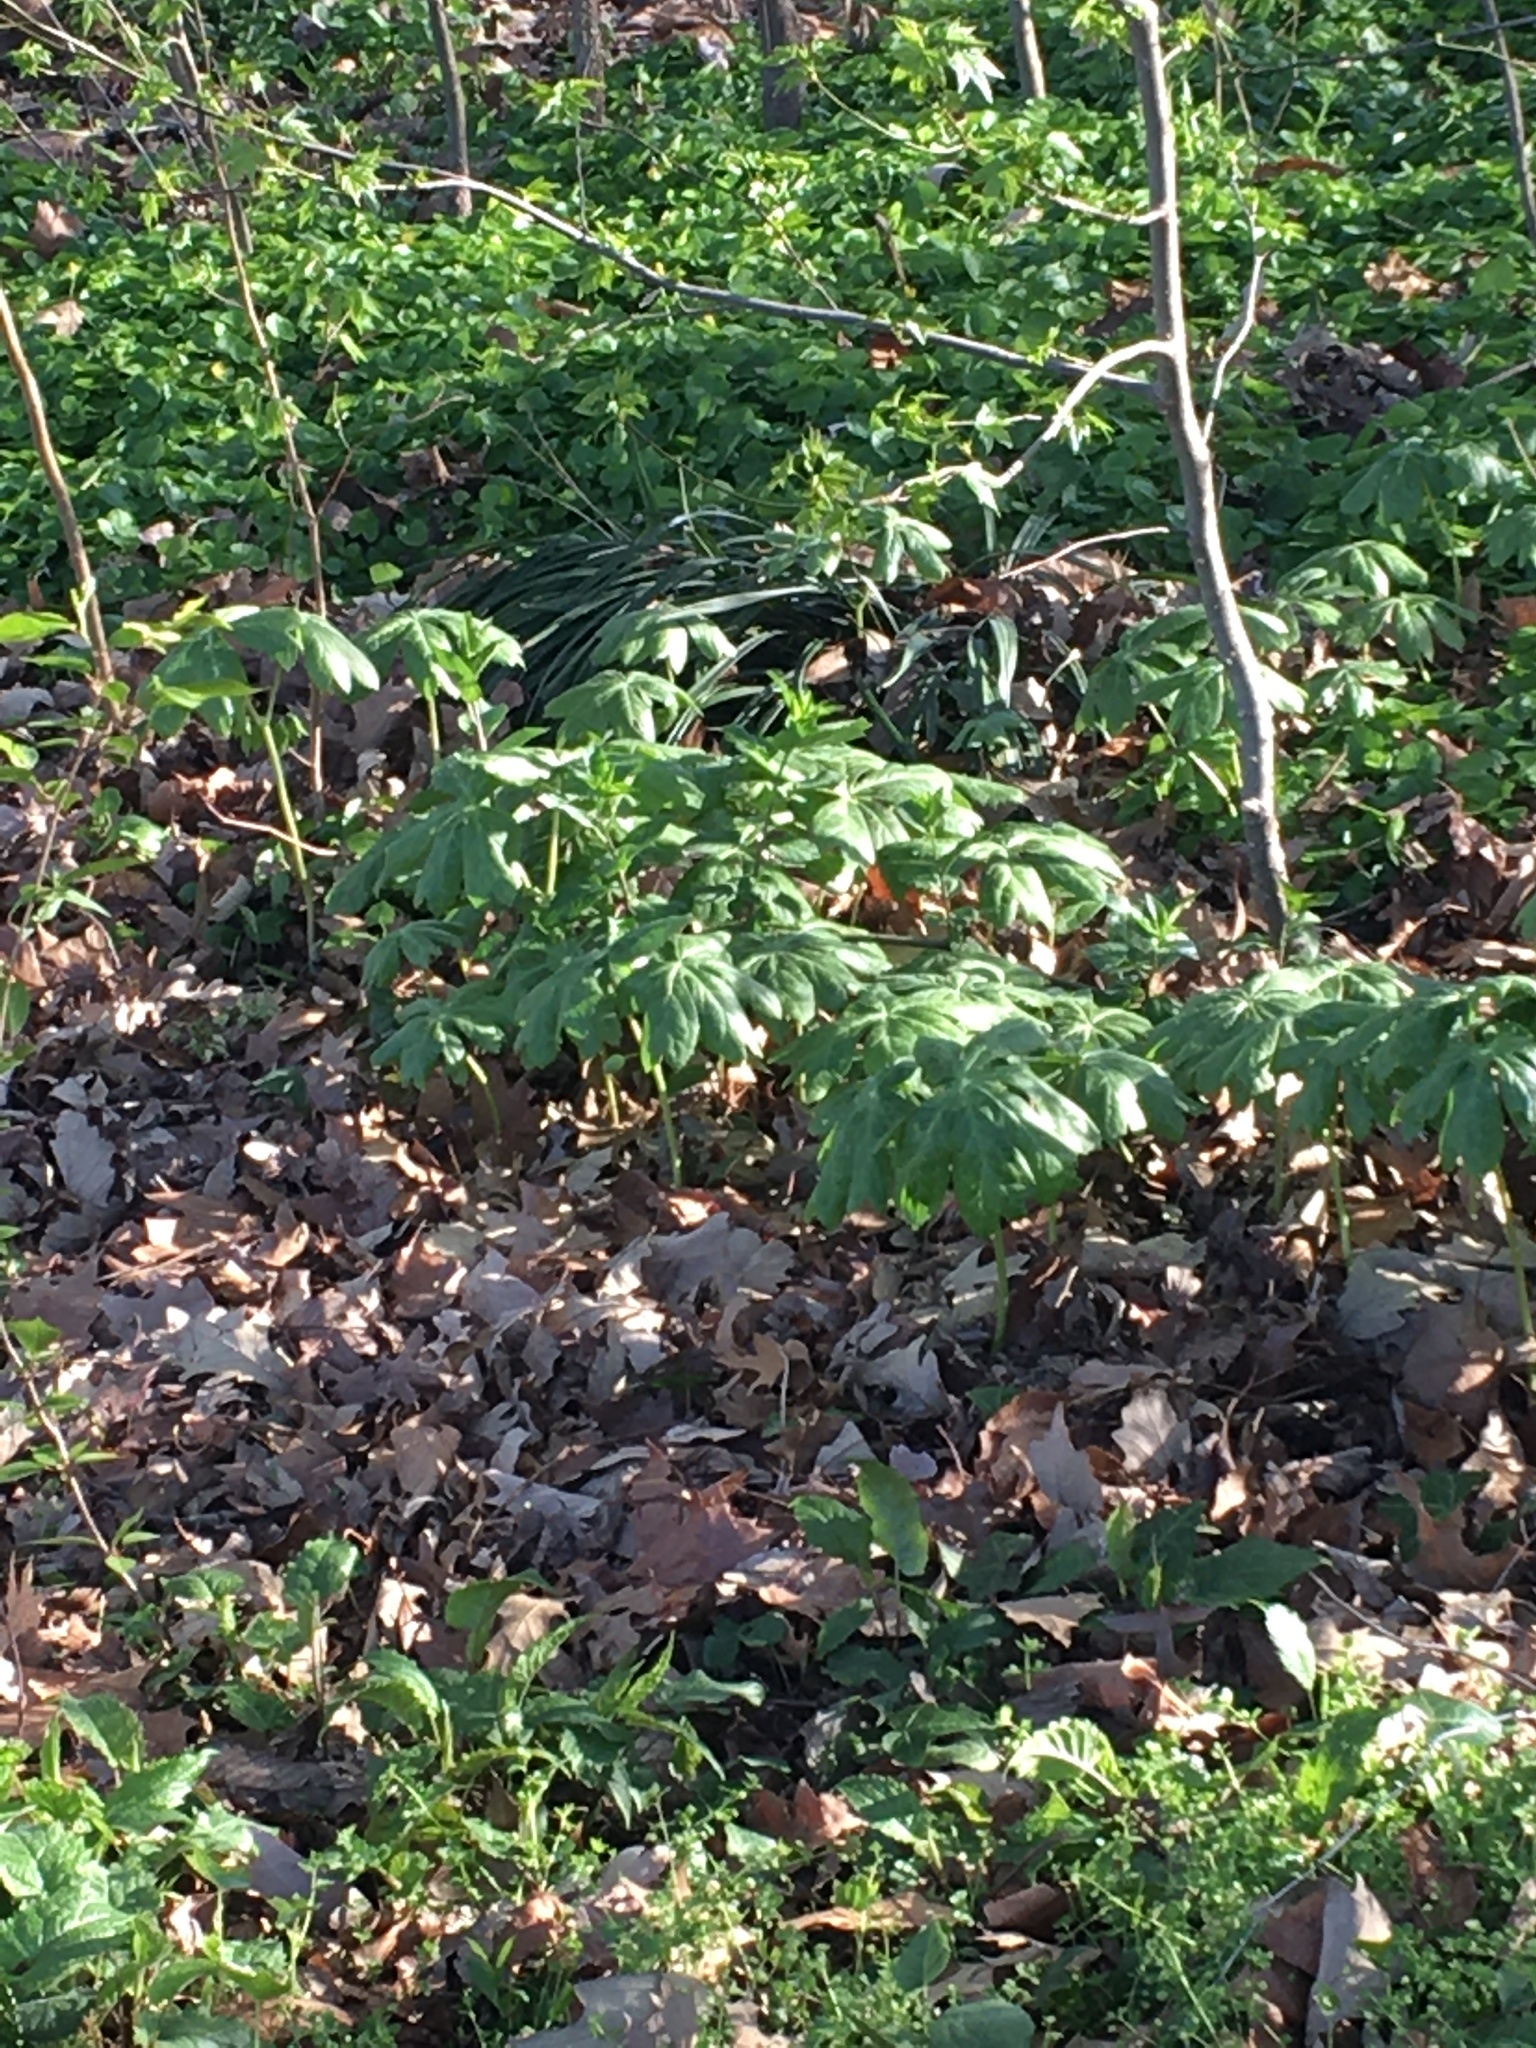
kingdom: Plantae
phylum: Tracheophyta
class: Magnoliopsida
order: Ranunculales
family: Berberidaceae
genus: Podophyllum
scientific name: Podophyllum peltatum
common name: Wild mandrake
